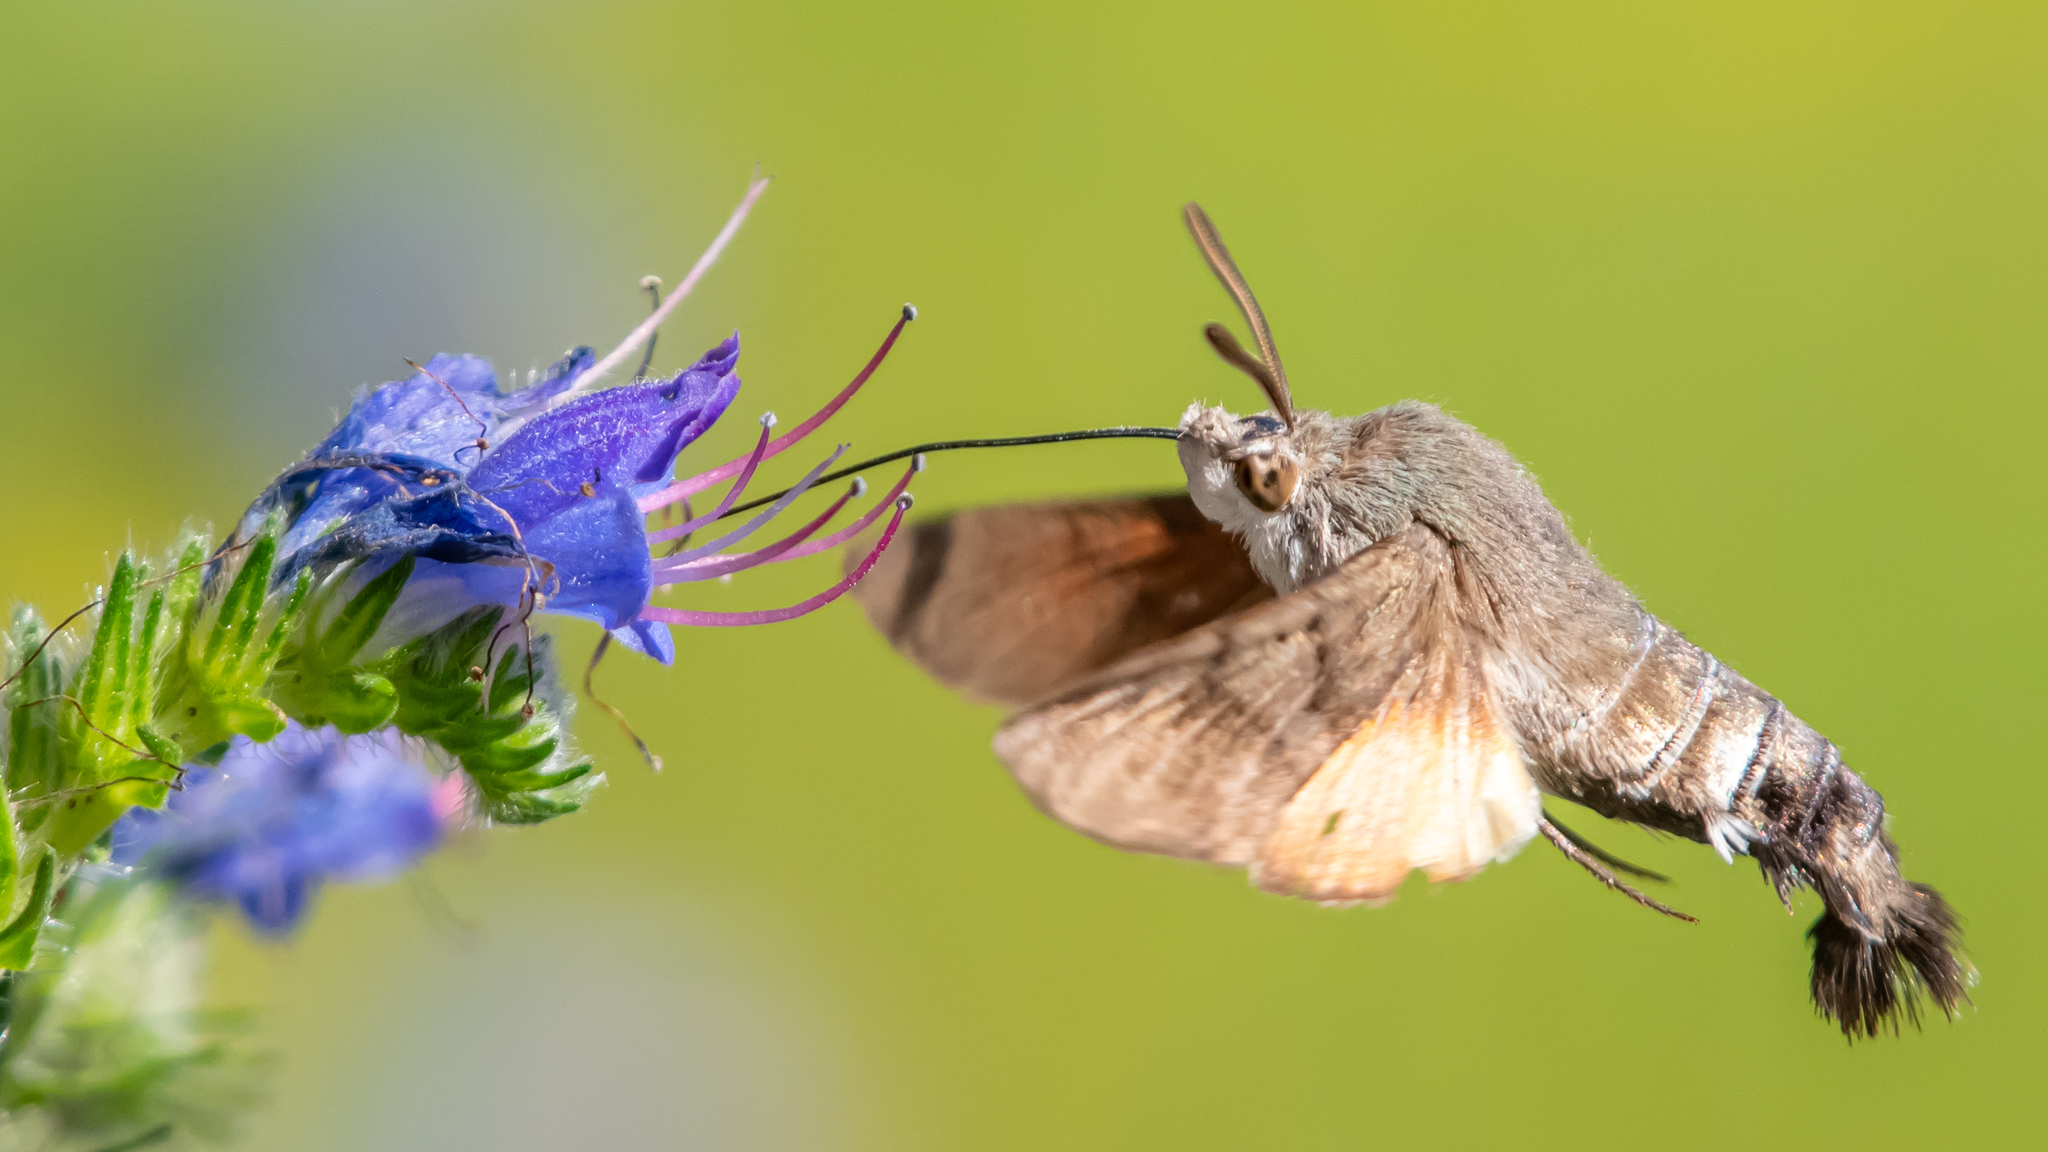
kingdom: Animalia
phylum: Arthropoda
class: Insecta
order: Lepidoptera
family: Sphingidae
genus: Macroglossum
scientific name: Macroglossum stellatarum
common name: Humming-bird hawk-moth
